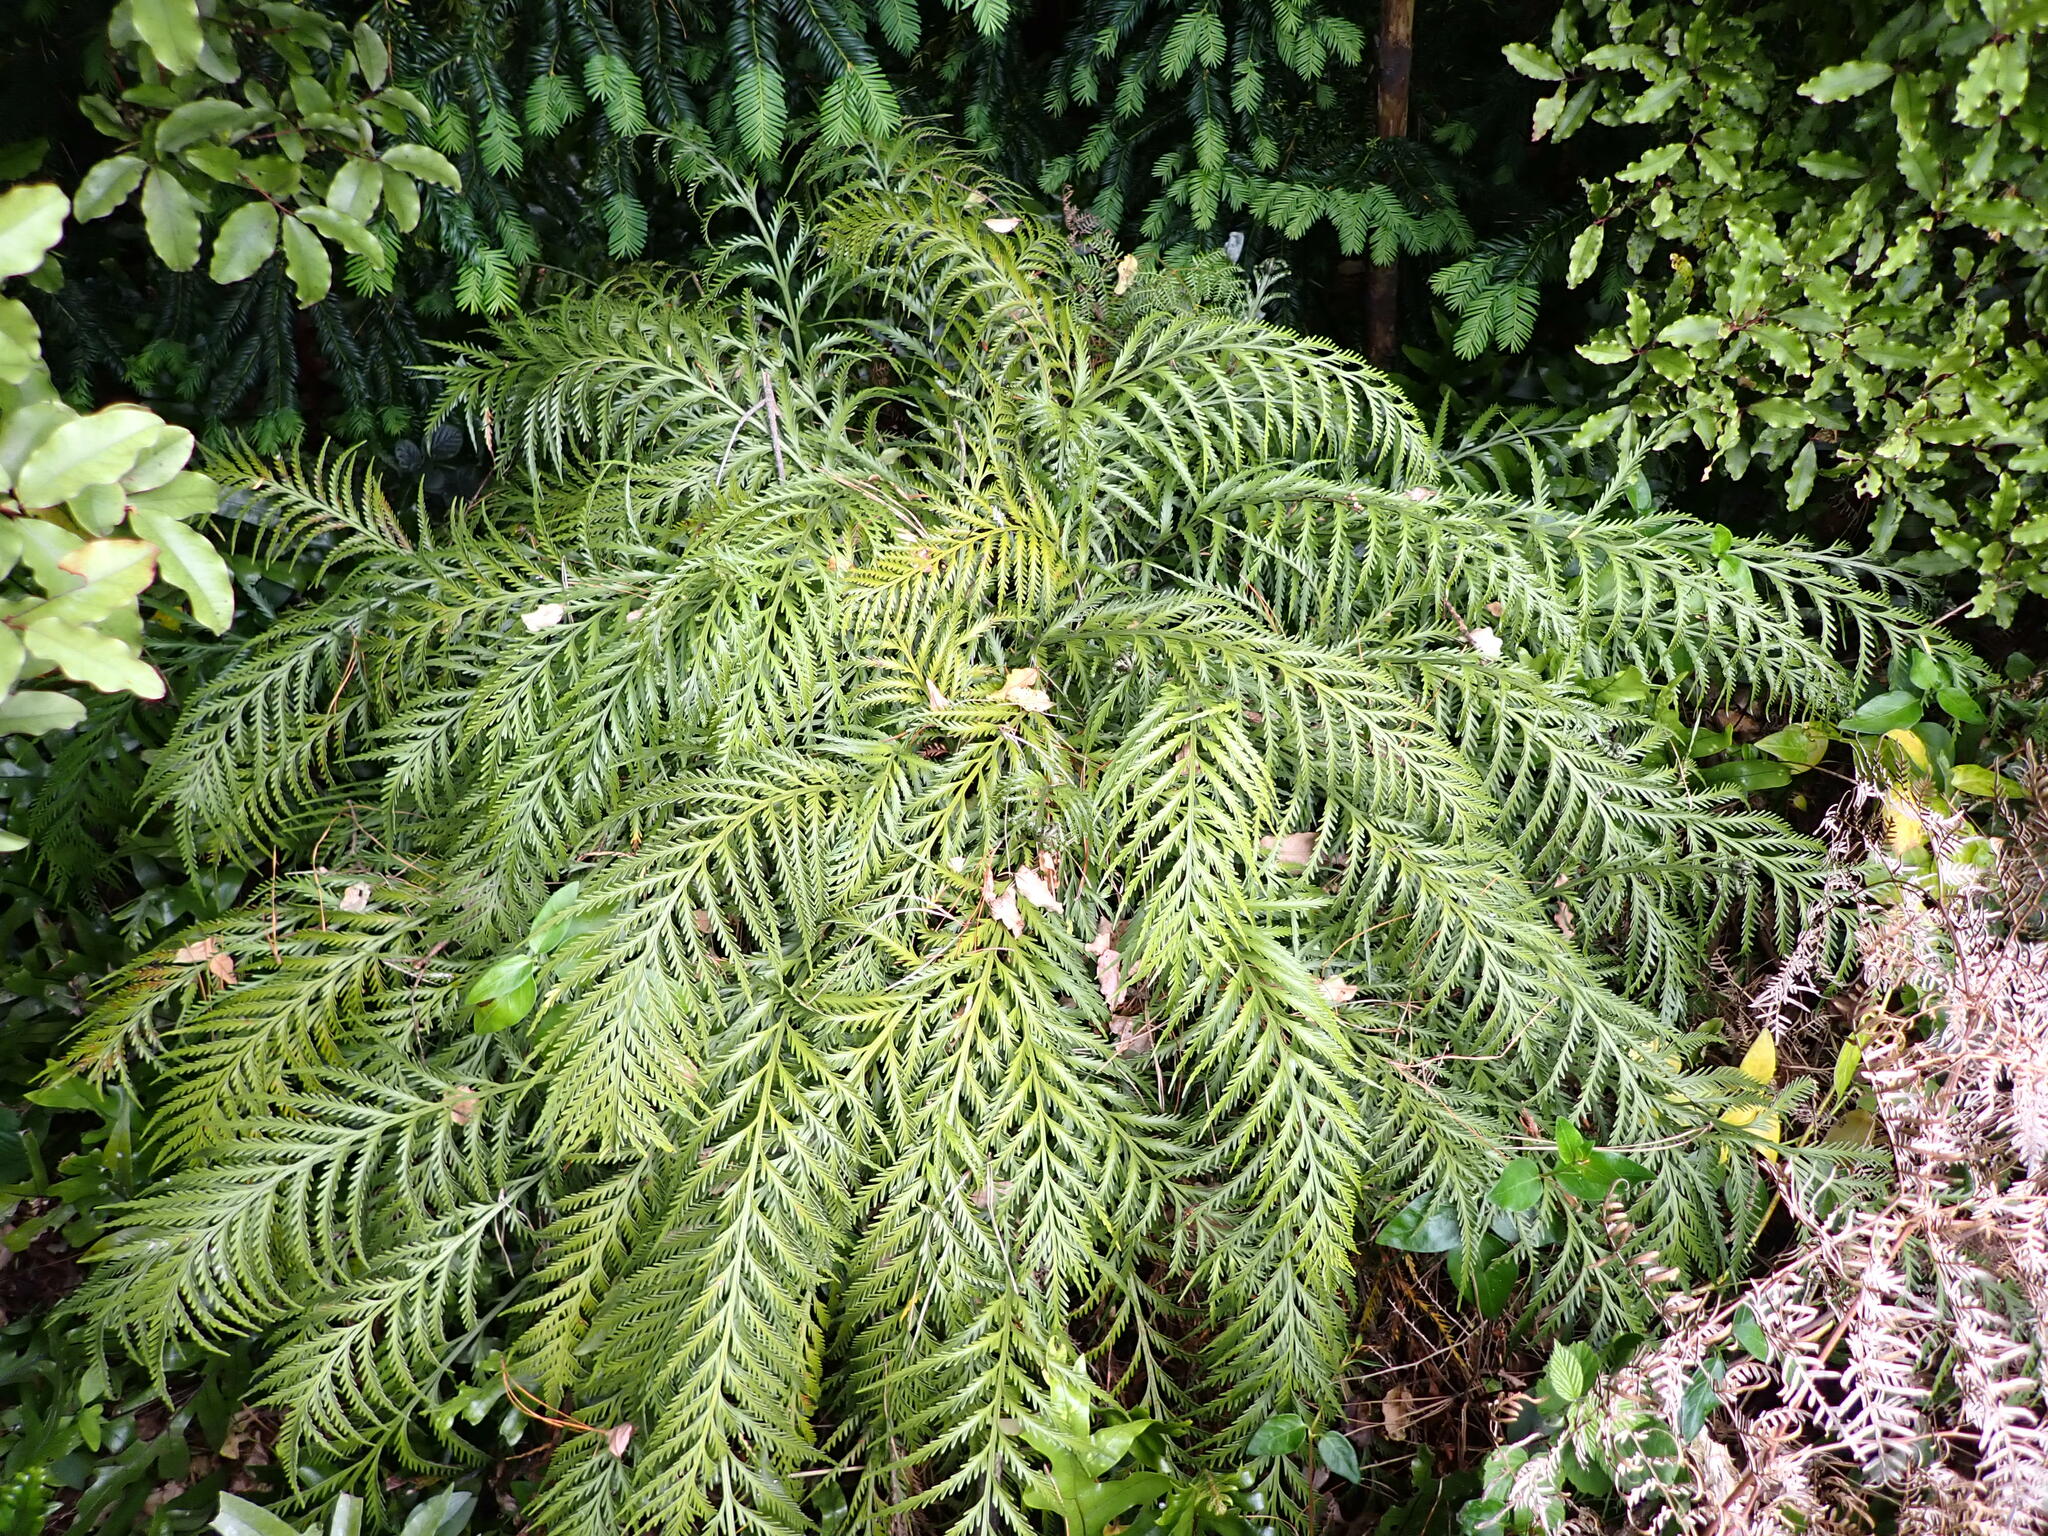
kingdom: Plantae
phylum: Tracheophyta
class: Polypodiopsida
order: Polypodiales
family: Aspleniaceae
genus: Asplenium
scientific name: Asplenium flaccidum
